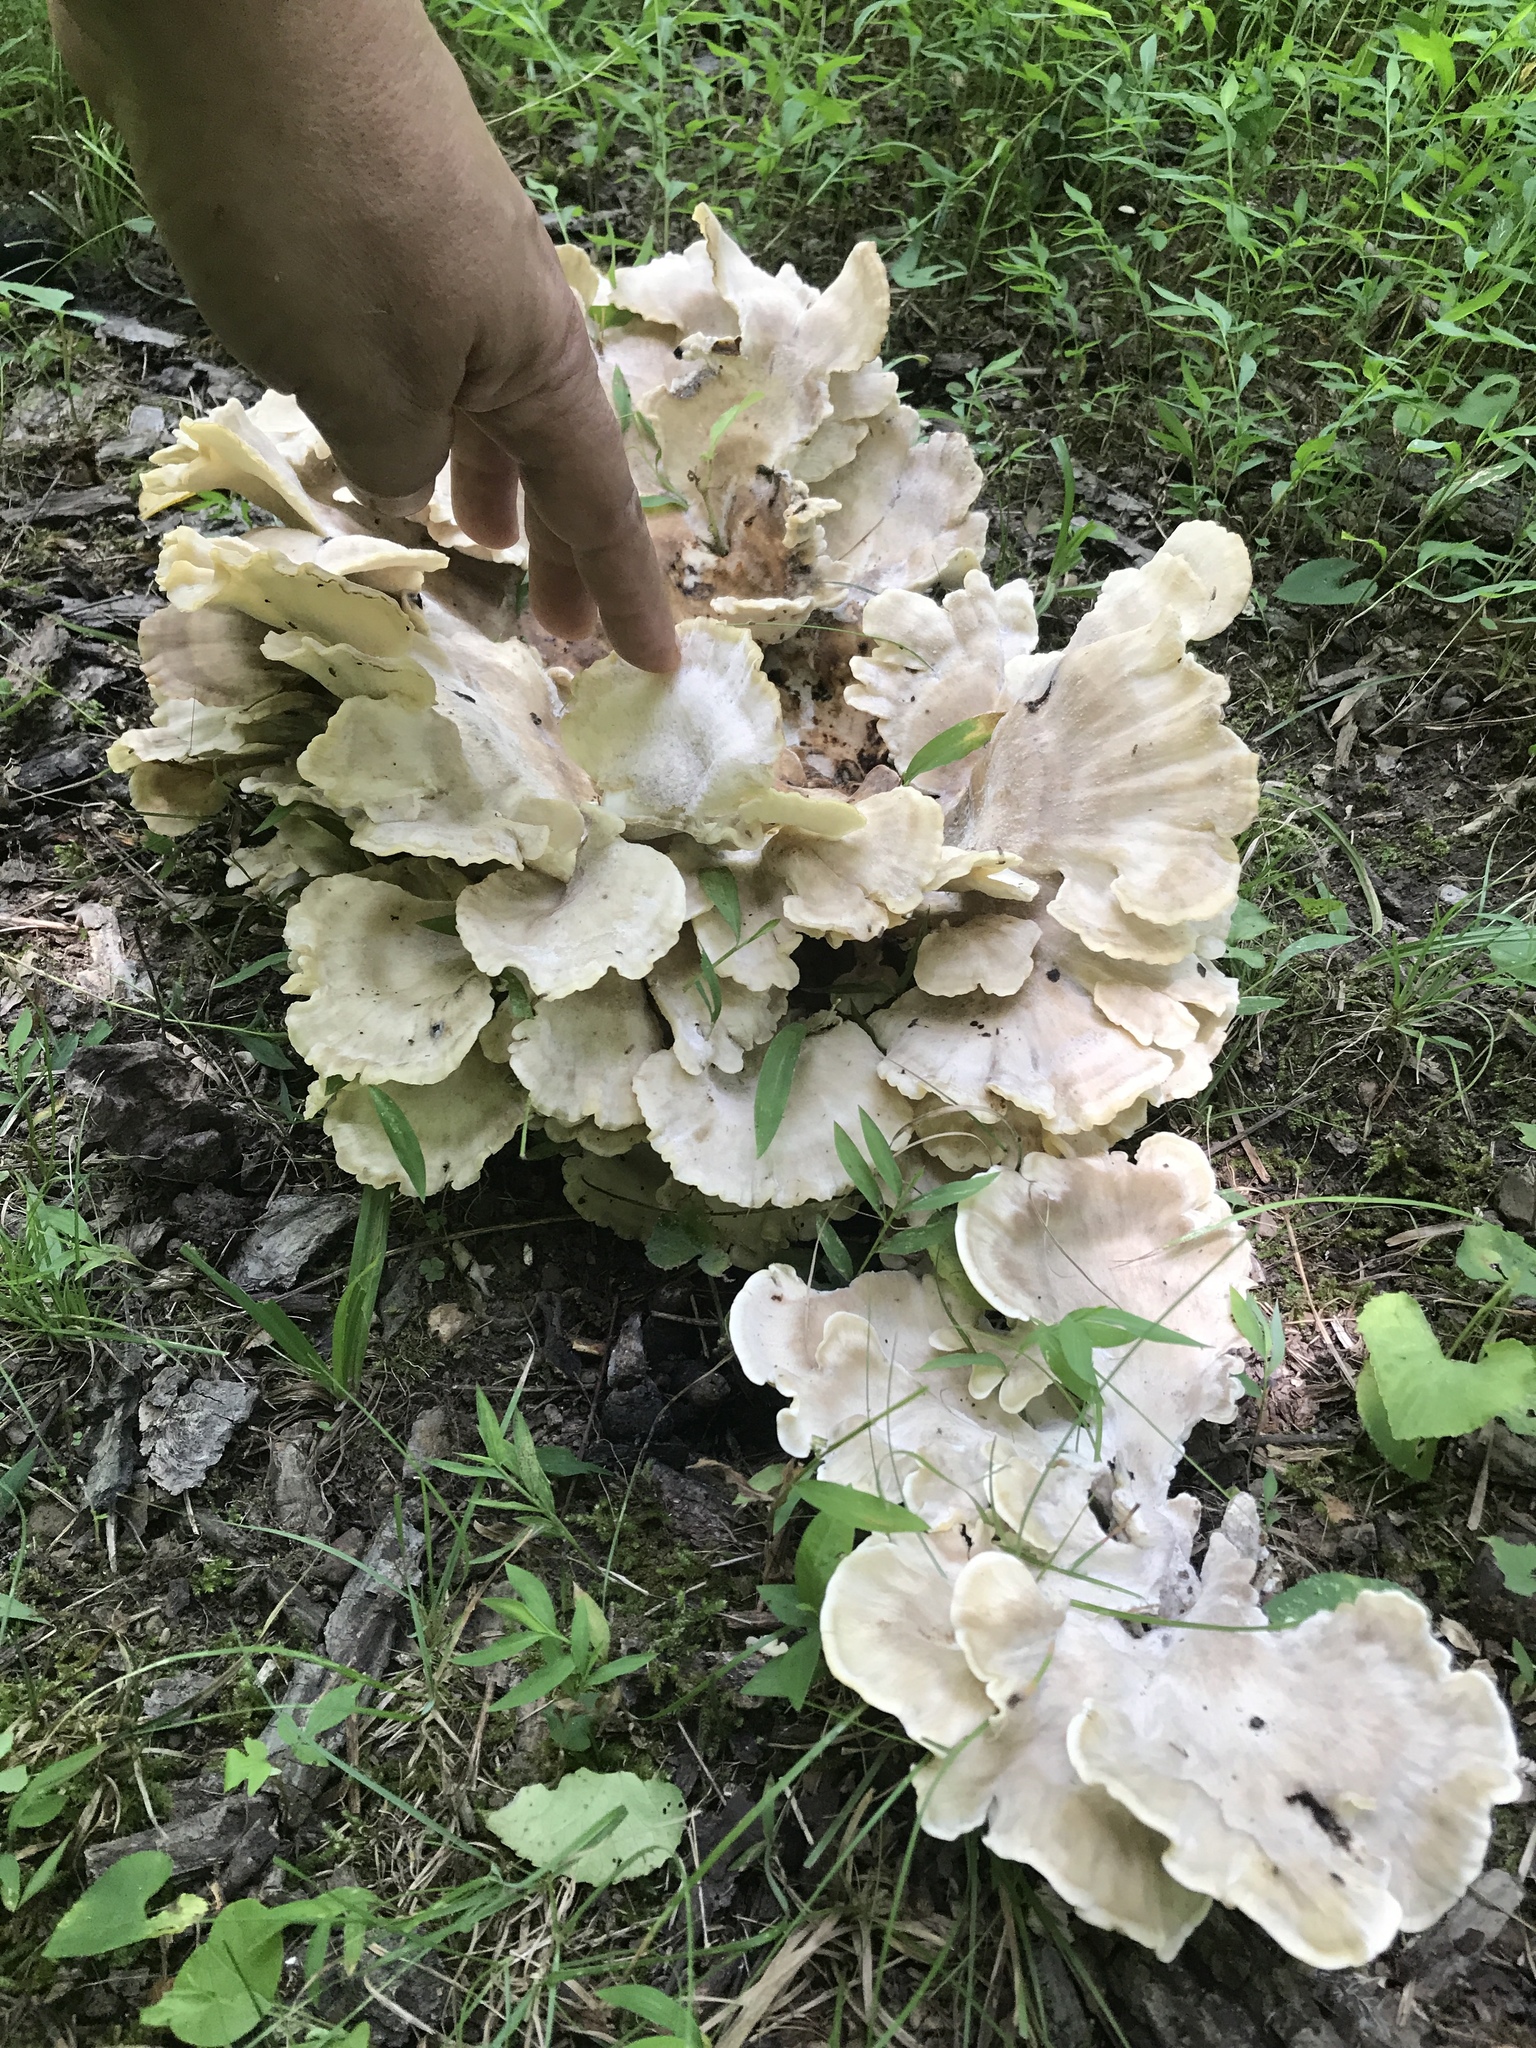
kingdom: Fungi
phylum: Basidiomycota
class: Agaricomycetes
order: Polyporales
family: Meripilaceae
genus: Meripilus
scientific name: Meripilus sumstinei
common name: Black-staining polypore
